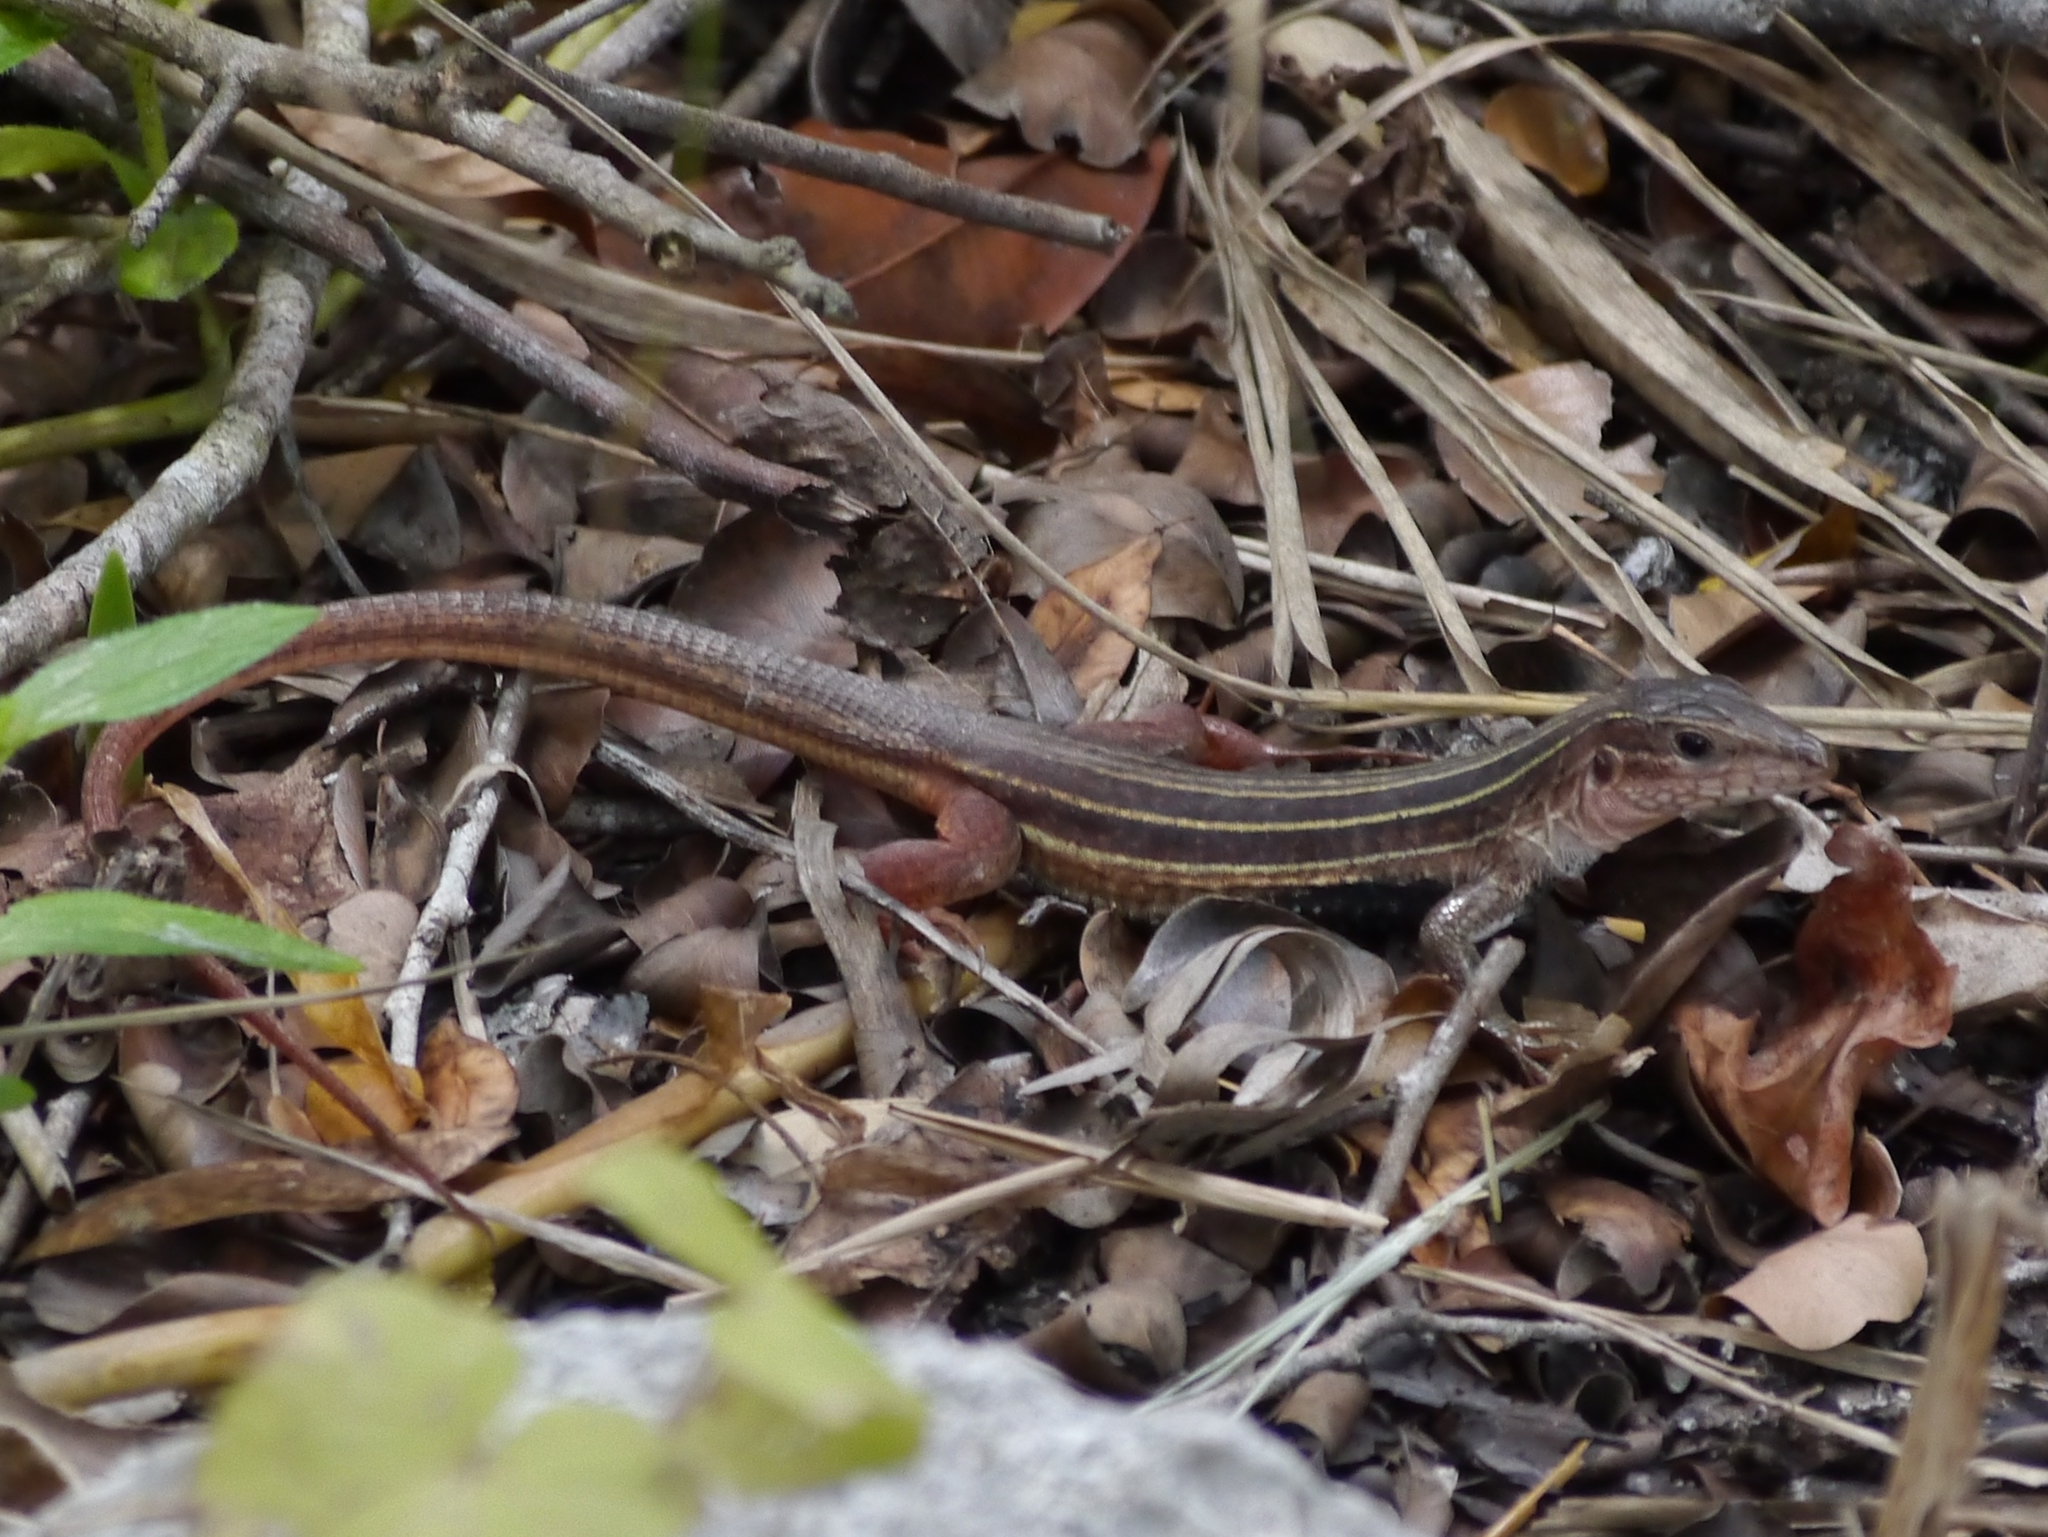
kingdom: Animalia
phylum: Chordata
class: Squamata
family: Teiidae
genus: Aspidoscelis
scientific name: Aspidoscelis angusticeps
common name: Yucatan whiptail
